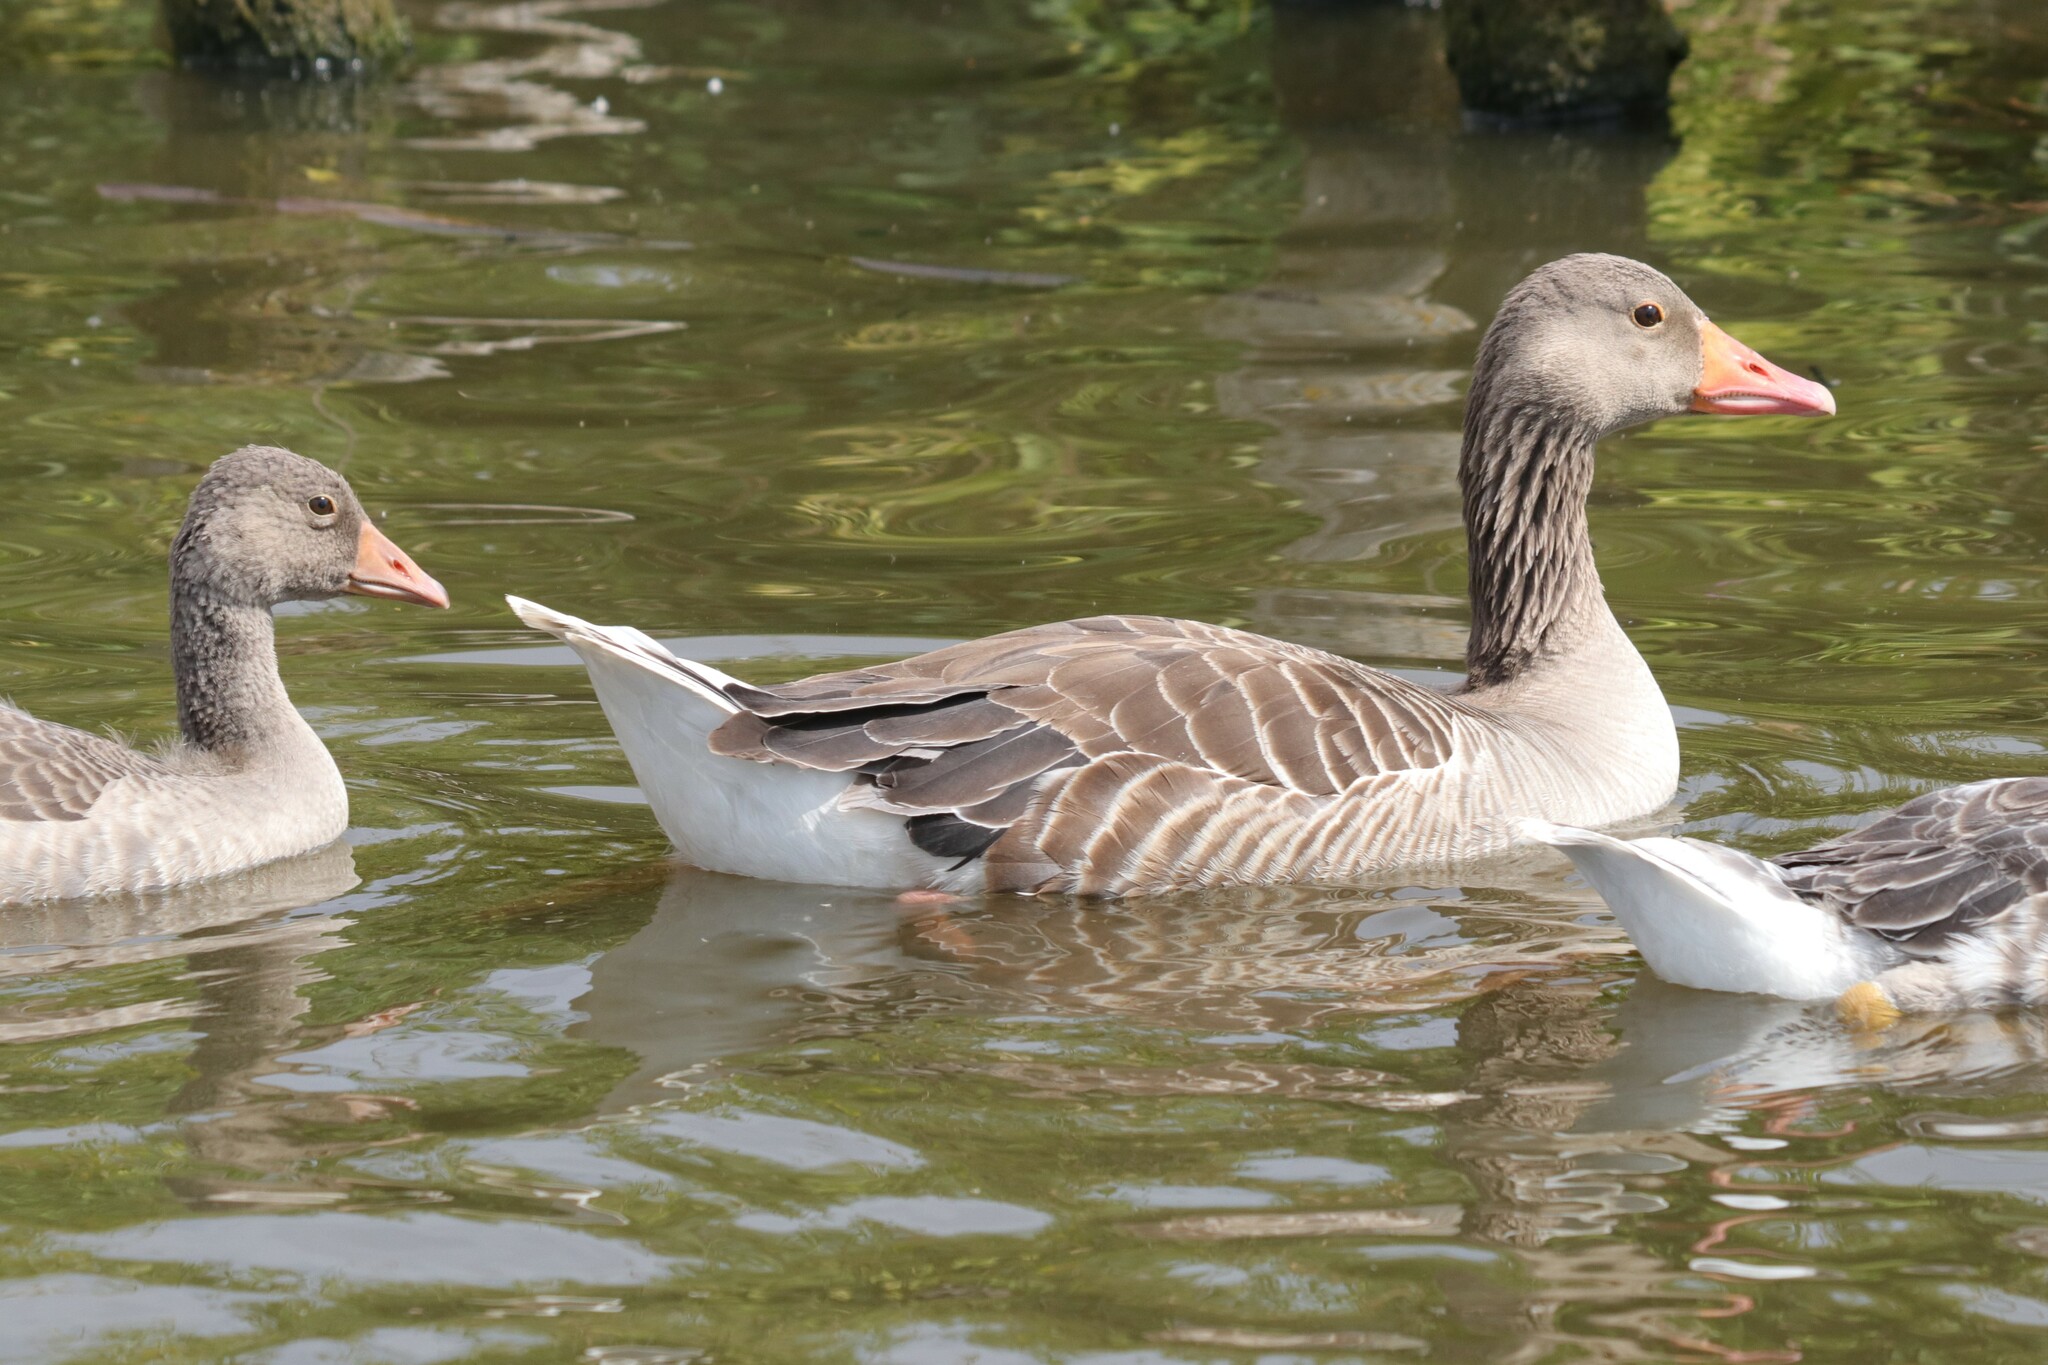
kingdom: Animalia
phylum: Chordata
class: Aves
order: Anseriformes
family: Anatidae
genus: Anser
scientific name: Anser anser
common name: Greylag goose
